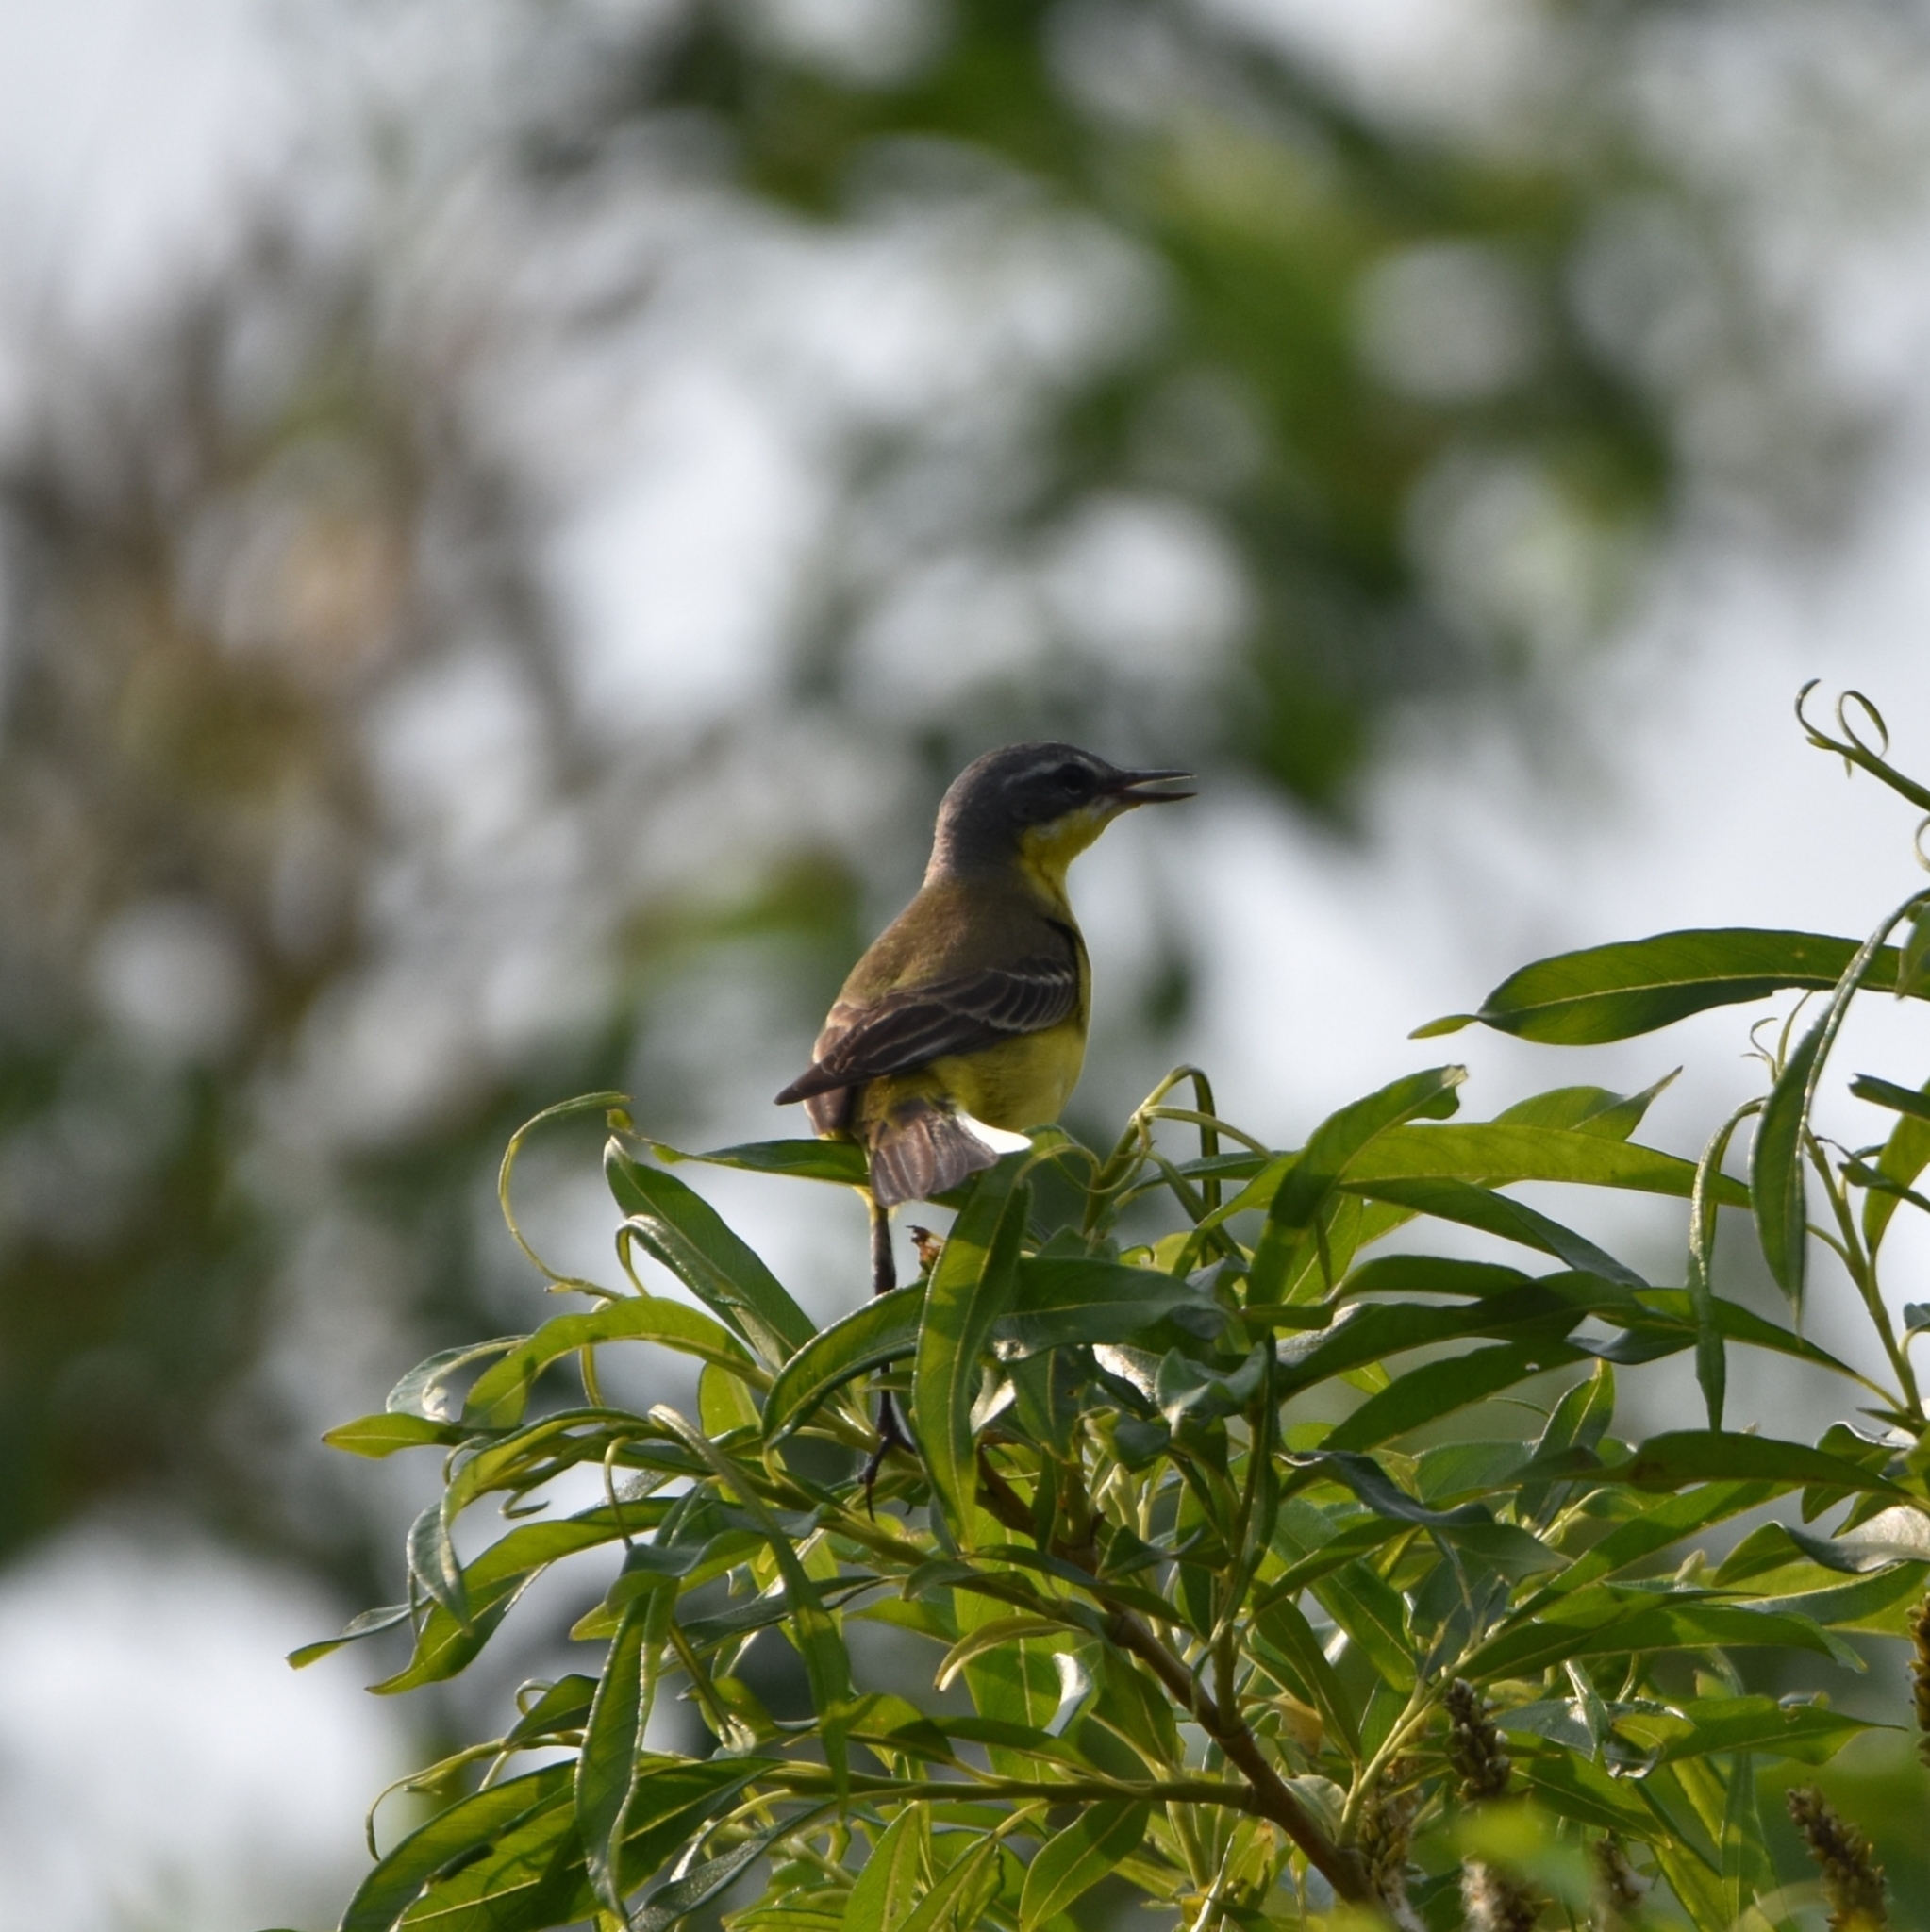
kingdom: Animalia
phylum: Chordata
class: Aves
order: Passeriformes
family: Motacillidae
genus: Motacilla
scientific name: Motacilla tschutschensis
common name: Eastern yellow wagtail
